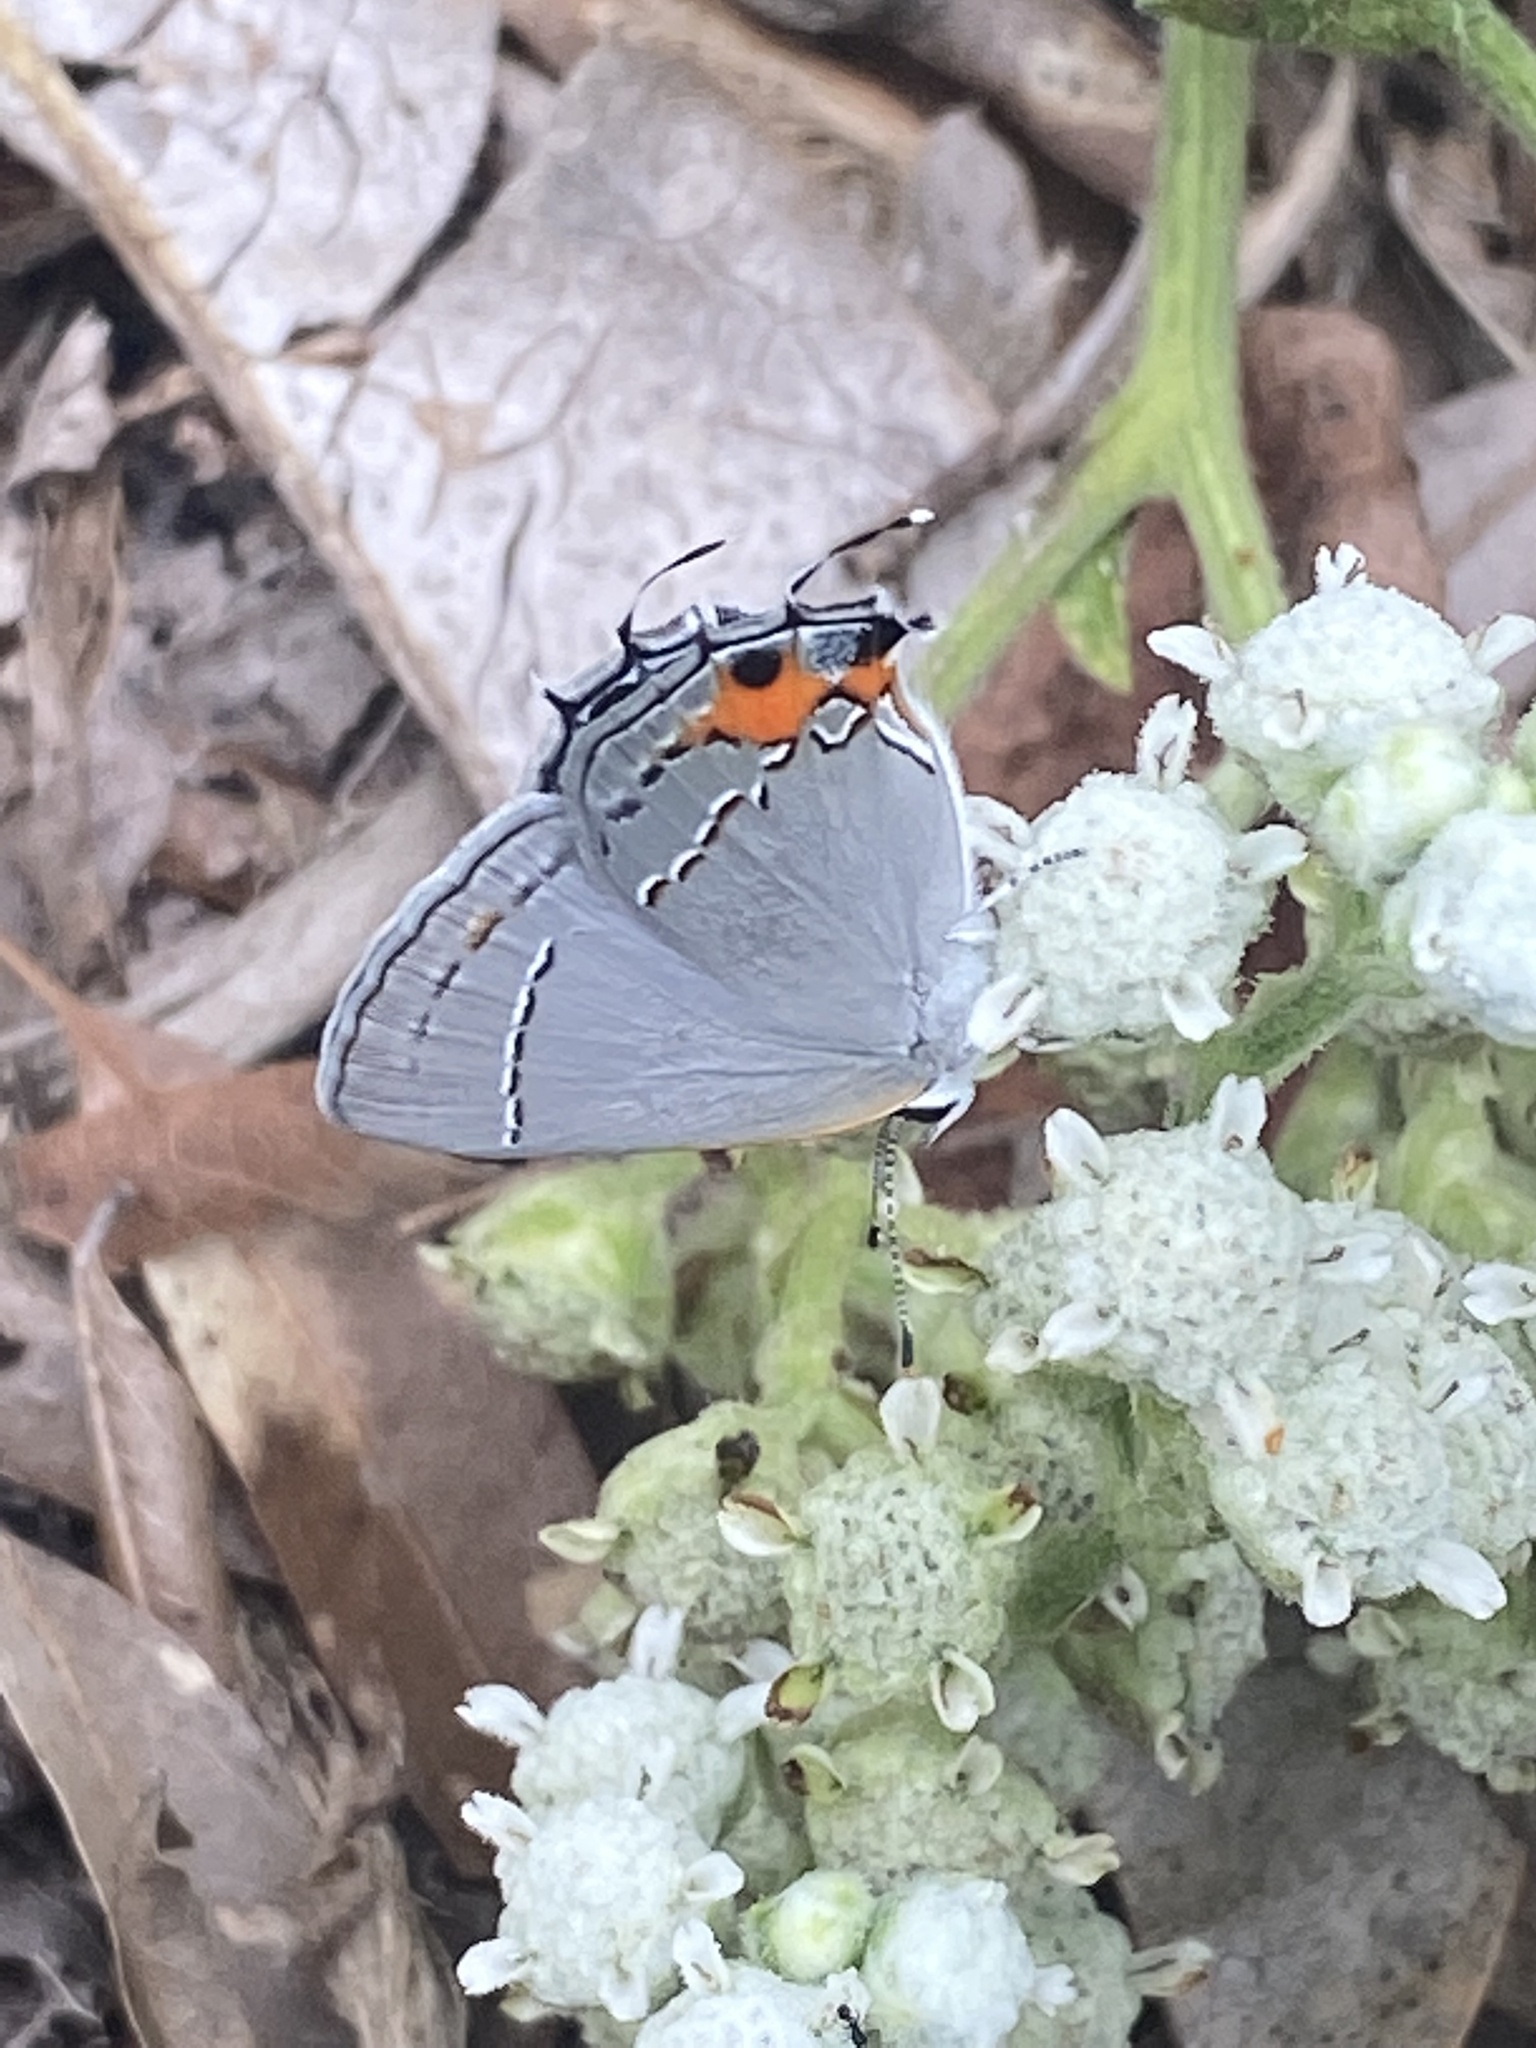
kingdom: Animalia
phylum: Arthropoda
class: Insecta
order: Lepidoptera
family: Lycaenidae
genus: Strymon
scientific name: Strymon melinus
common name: Gray hairstreak
